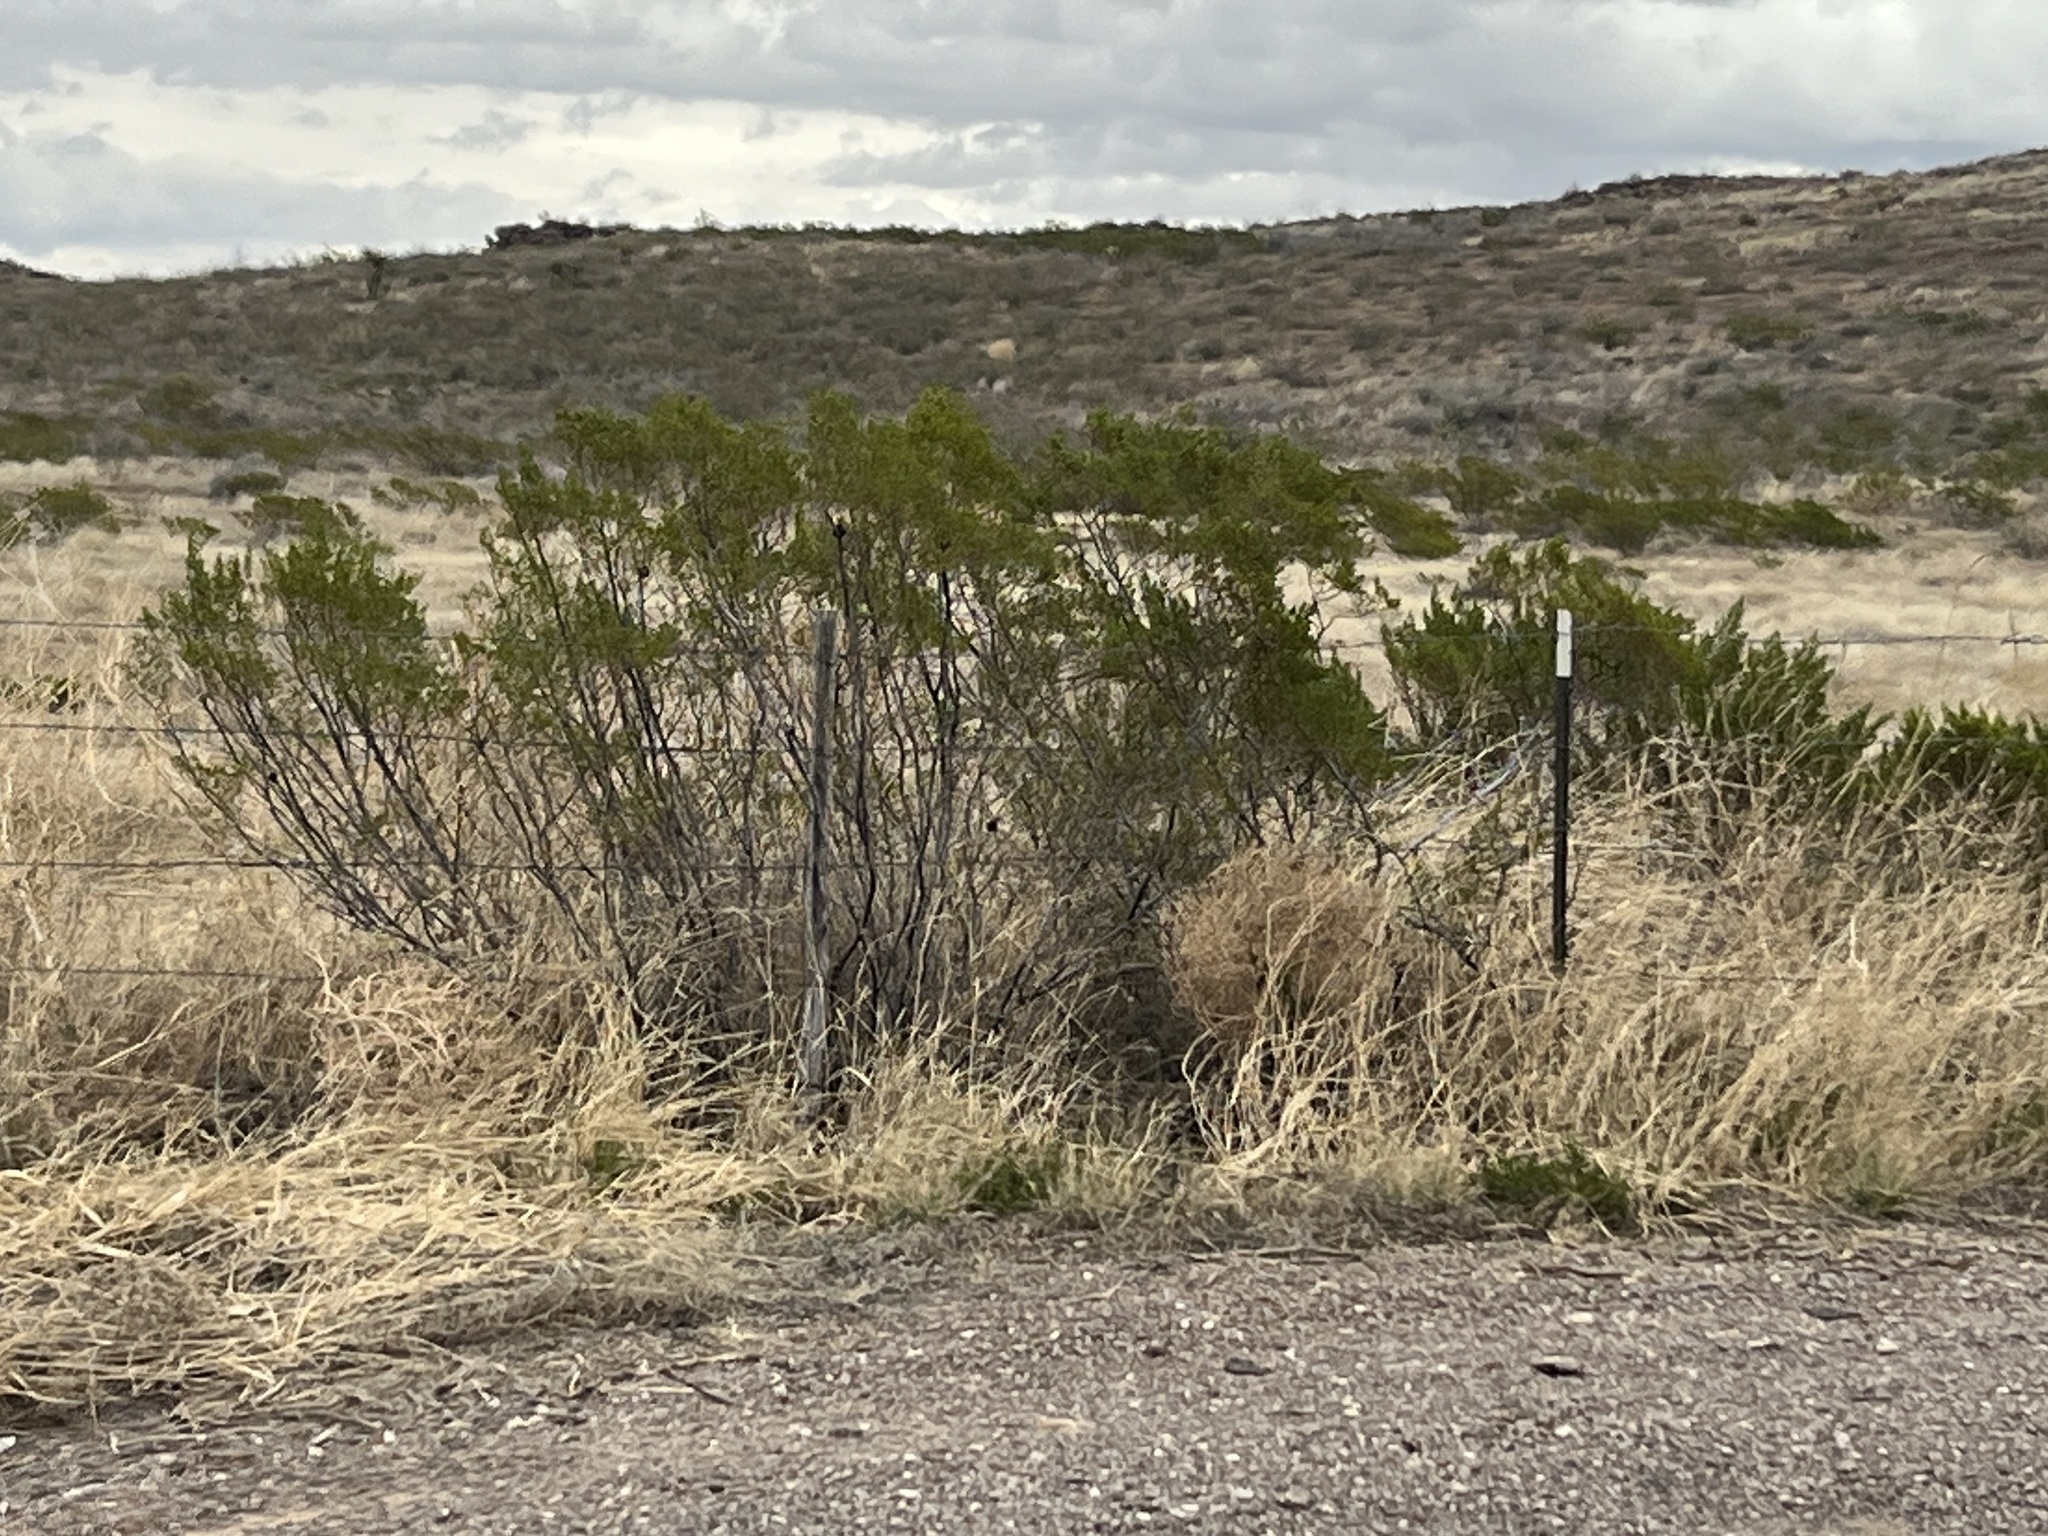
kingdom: Plantae
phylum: Tracheophyta
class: Magnoliopsida
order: Zygophyllales
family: Zygophyllaceae
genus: Larrea
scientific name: Larrea tridentata
